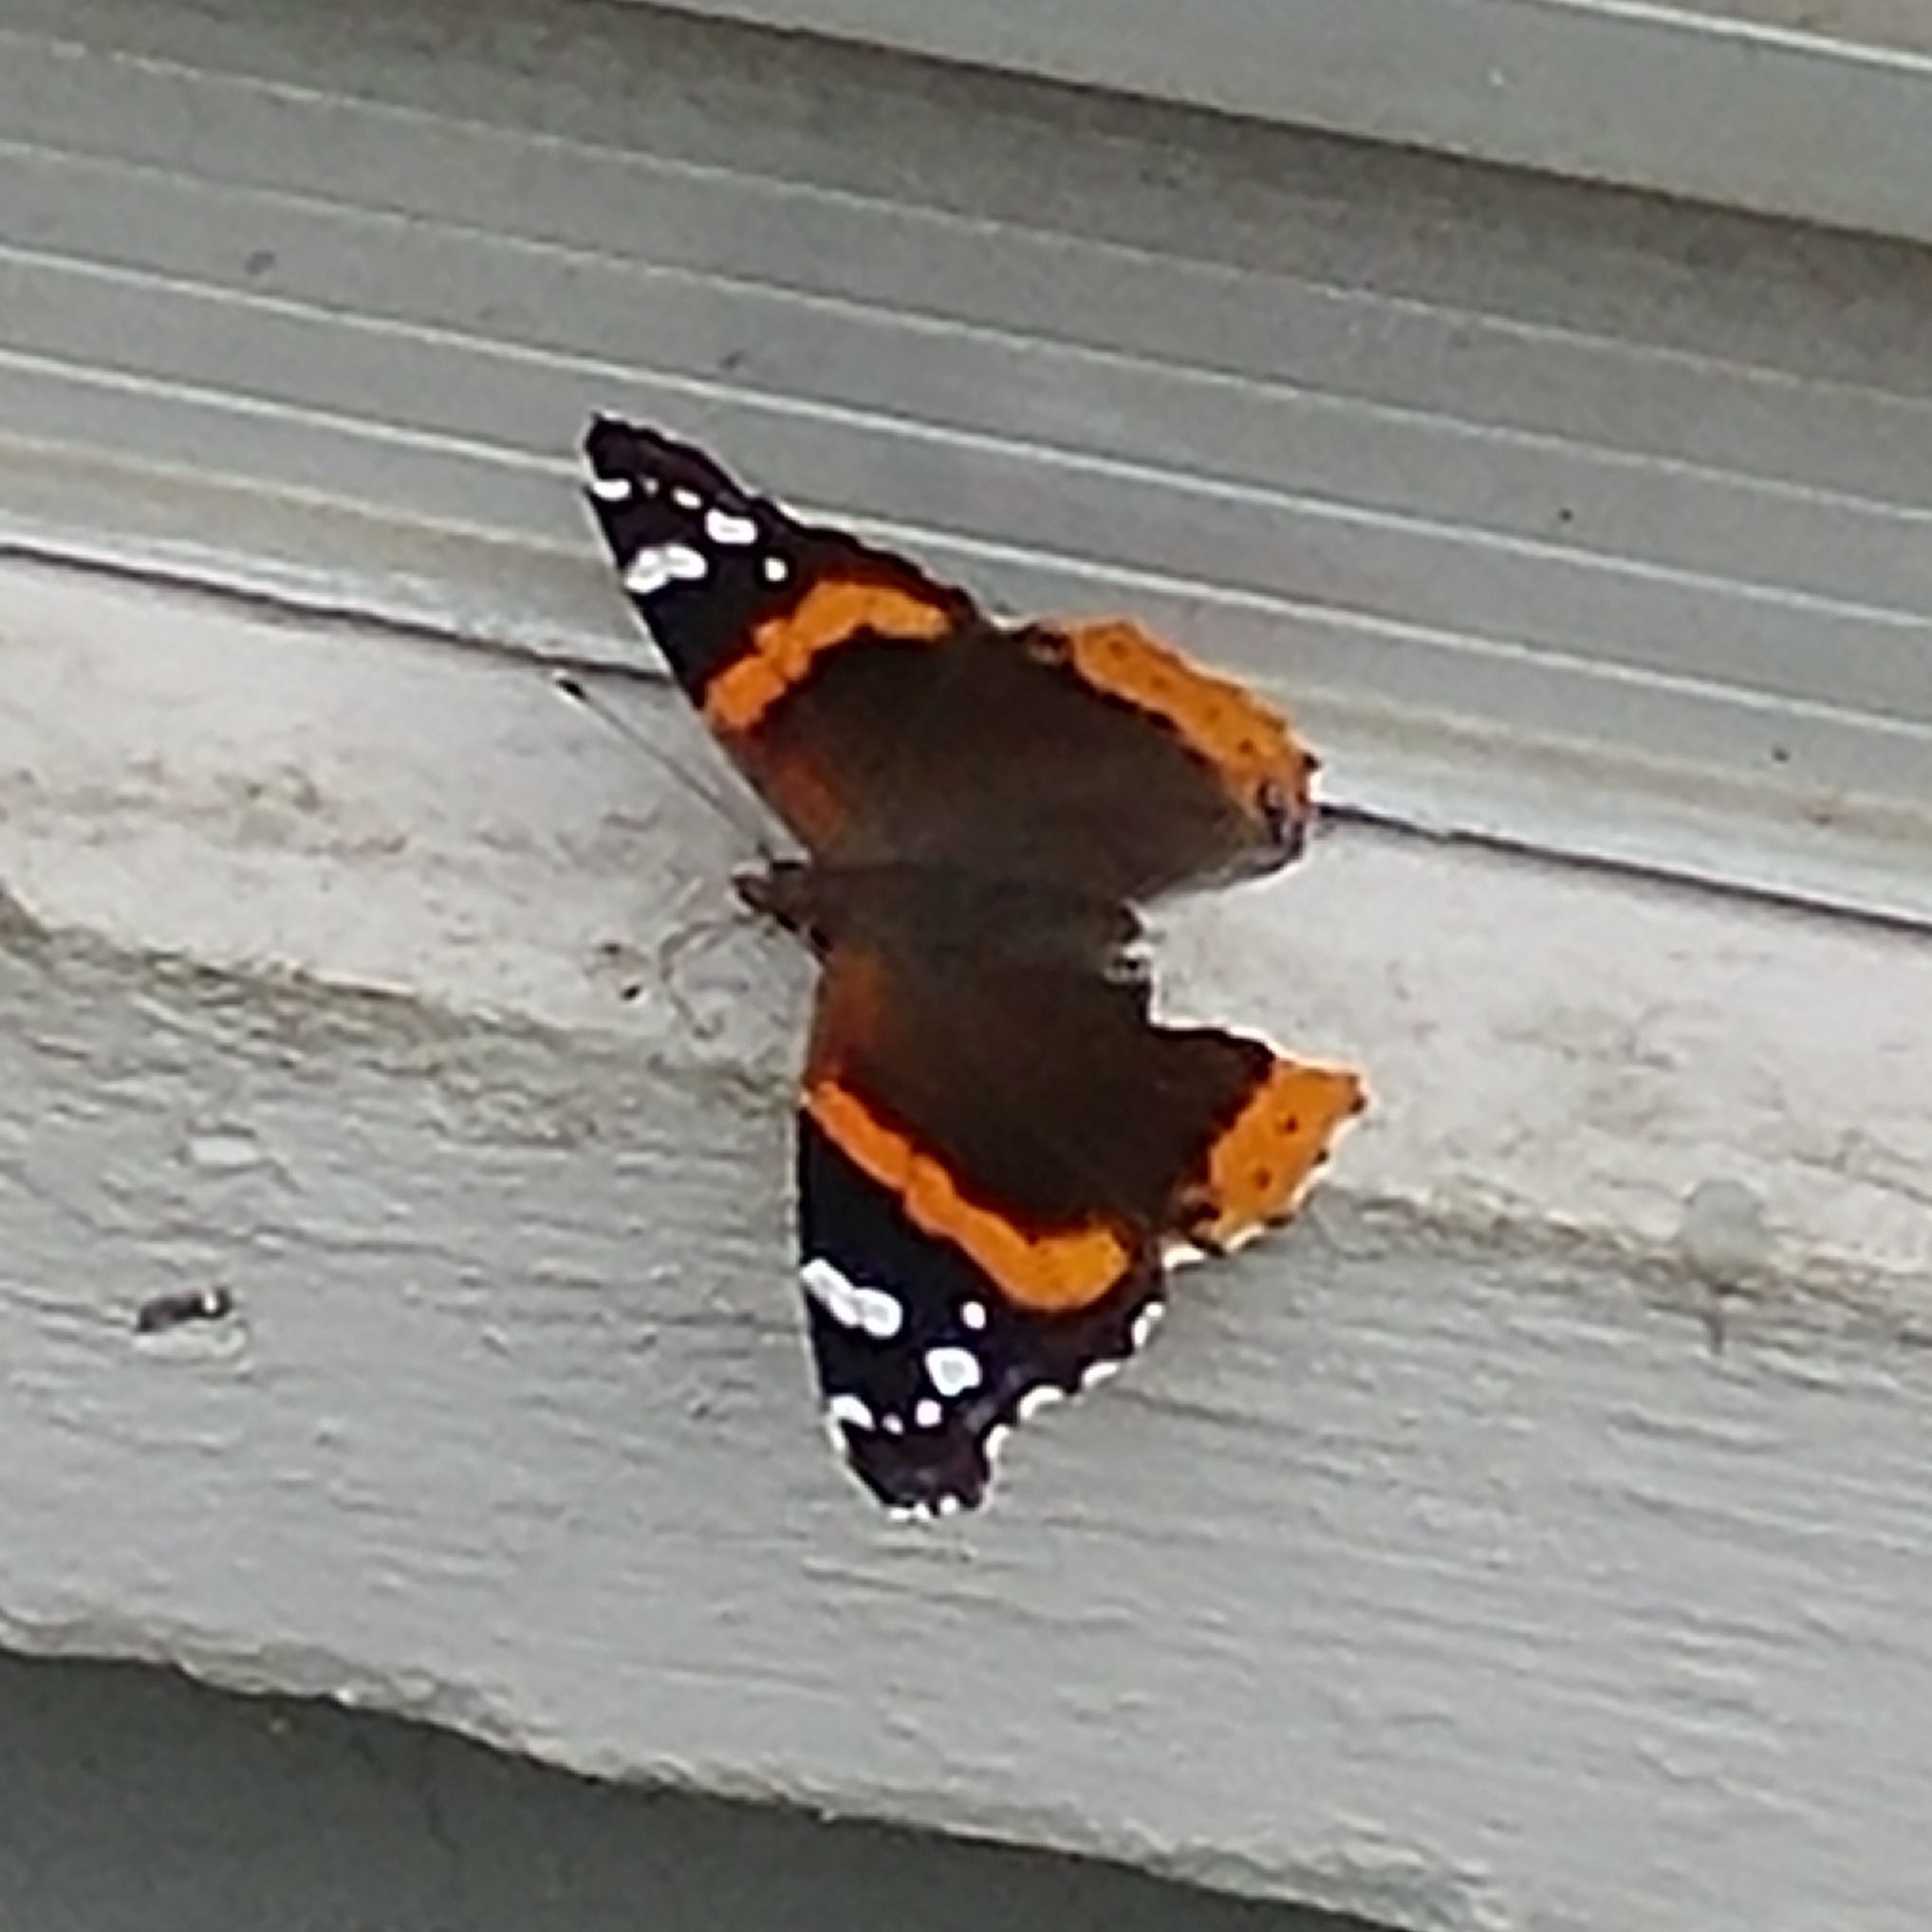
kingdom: Animalia
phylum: Arthropoda
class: Insecta
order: Lepidoptera
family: Nymphalidae
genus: Vanessa
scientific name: Vanessa atalanta
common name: Red admiral
